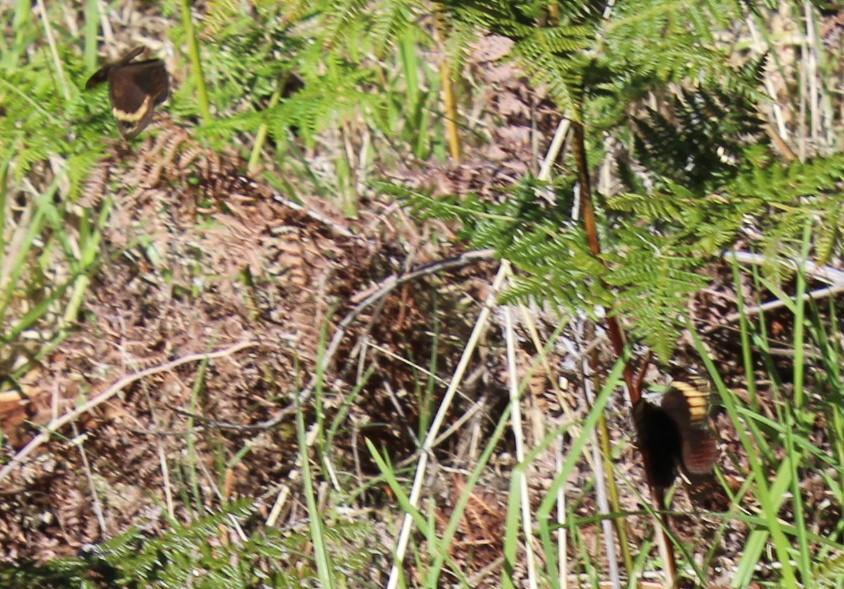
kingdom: Animalia
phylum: Arthropoda
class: Insecta
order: Lepidoptera
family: Nymphalidae
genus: Dira
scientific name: Dira clytus
